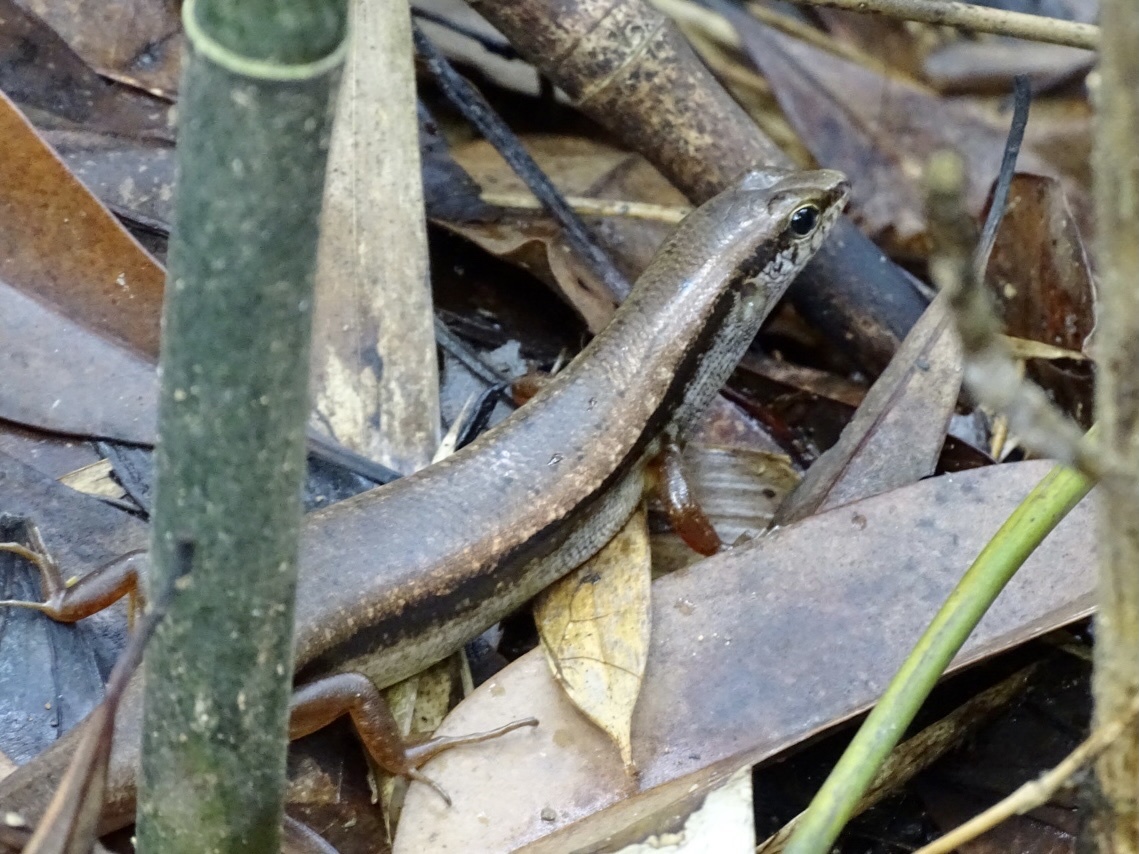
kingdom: Animalia
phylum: Chordata
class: Squamata
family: Scincidae
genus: Sphenomorphus
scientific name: Sphenomorphus indicus
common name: Himalayan forest skink
